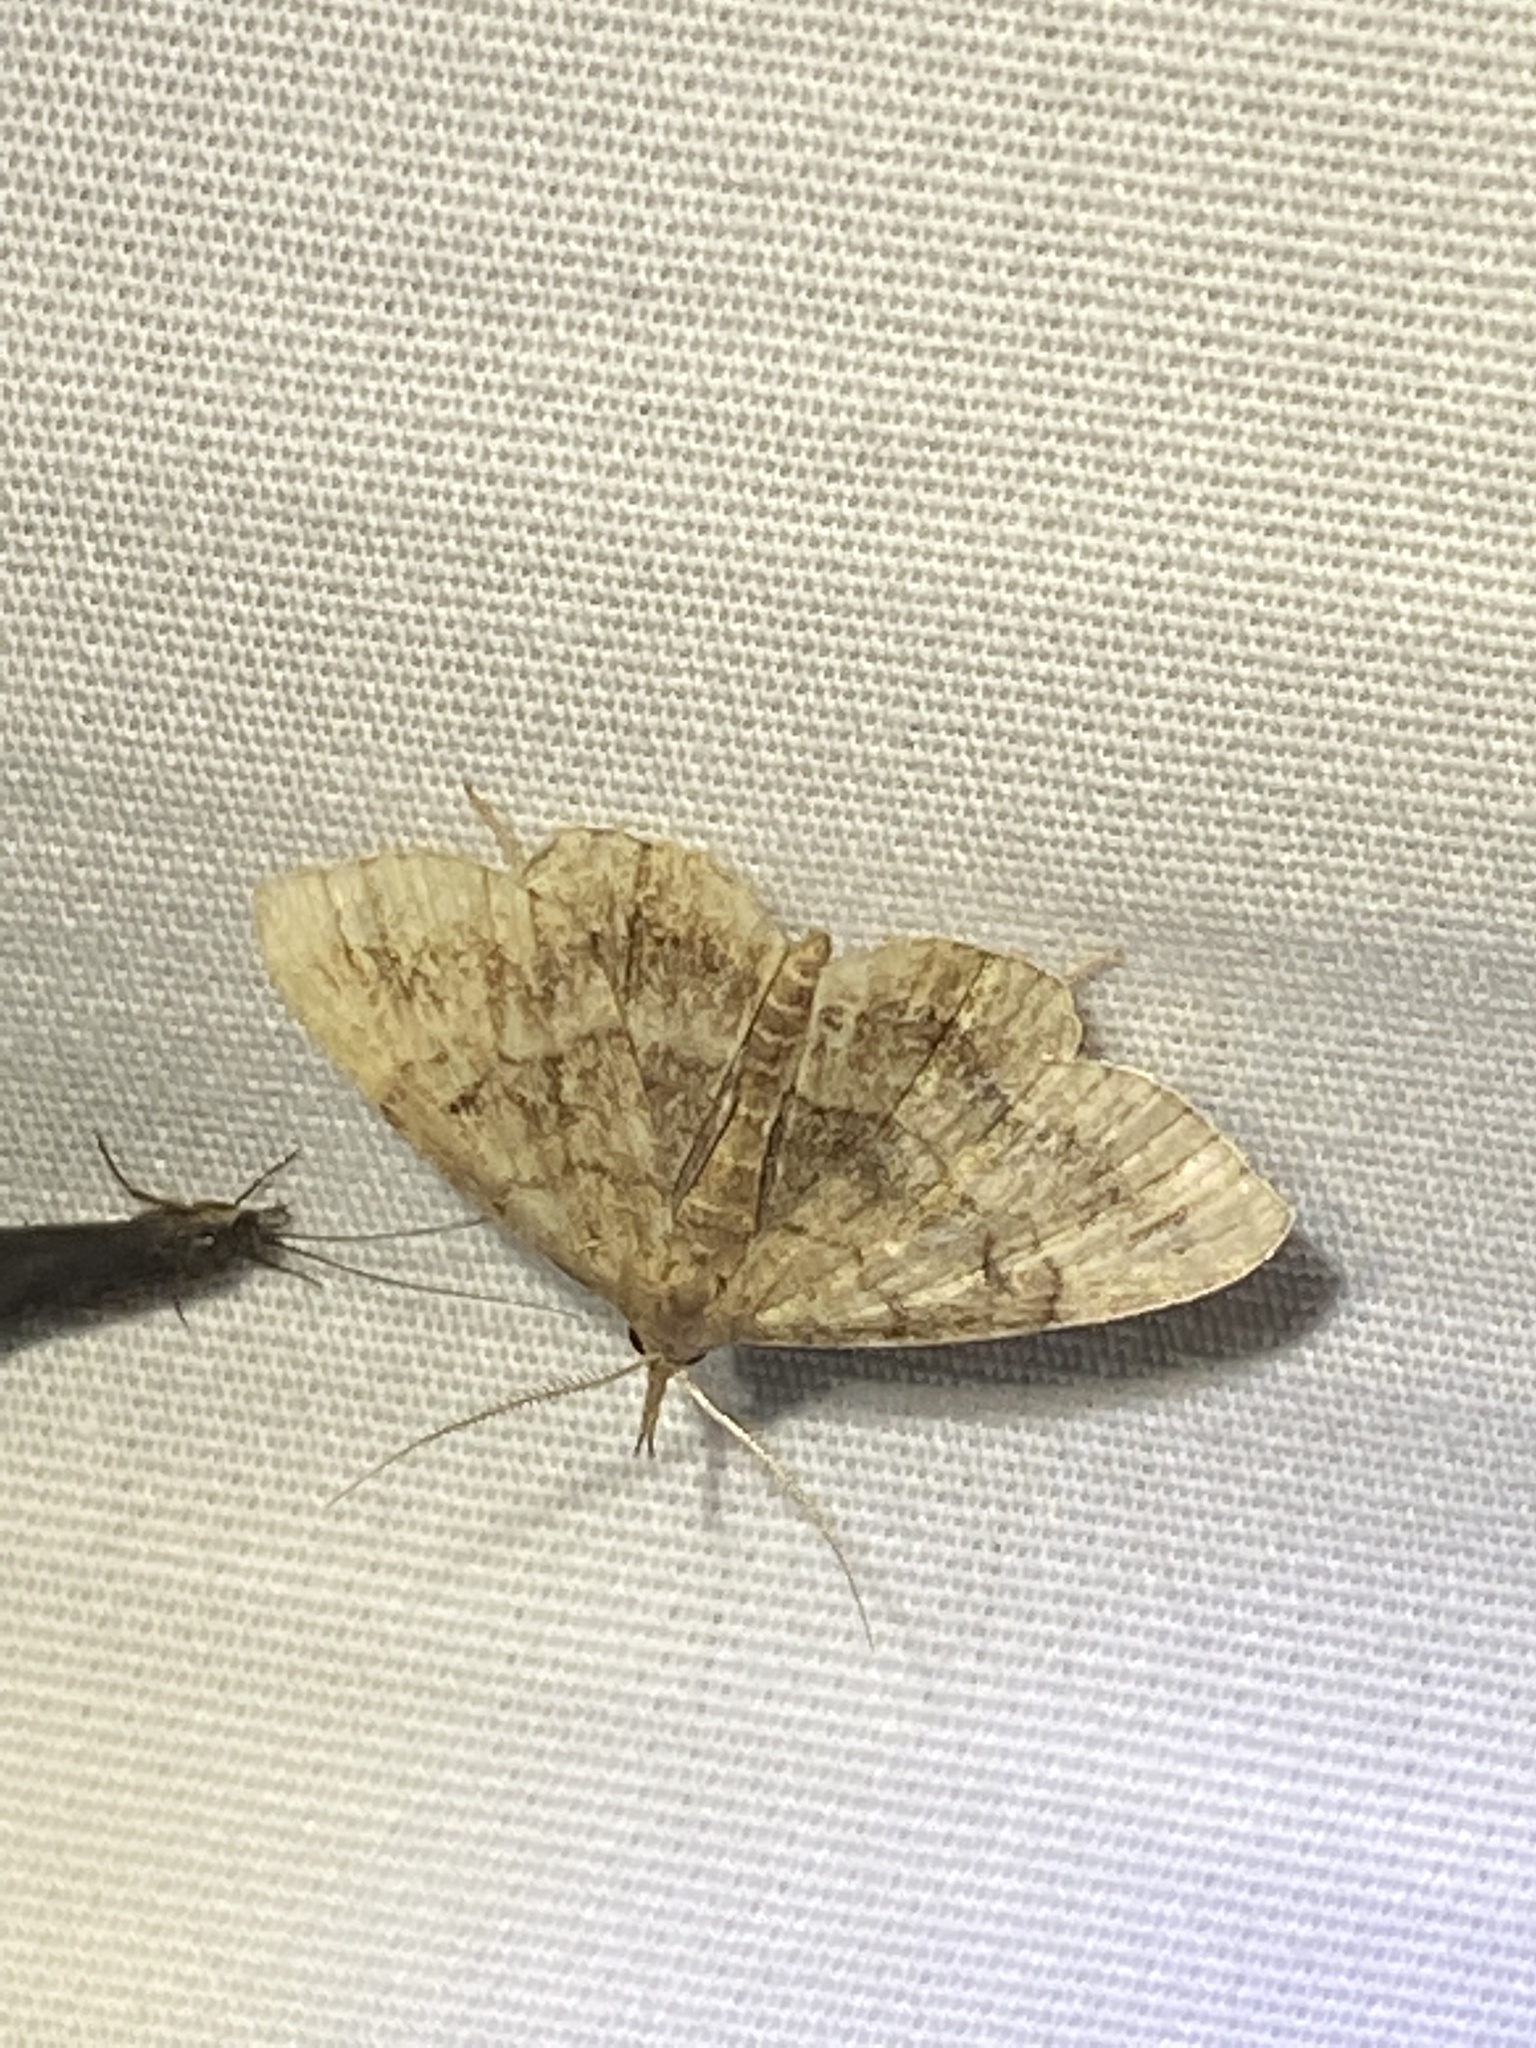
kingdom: Animalia
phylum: Arthropoda
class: Insecta
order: Lepidoptera
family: Erebidae
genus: Phalaenostola
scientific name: Phalaenostola larentioides
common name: Black-banded owlet
